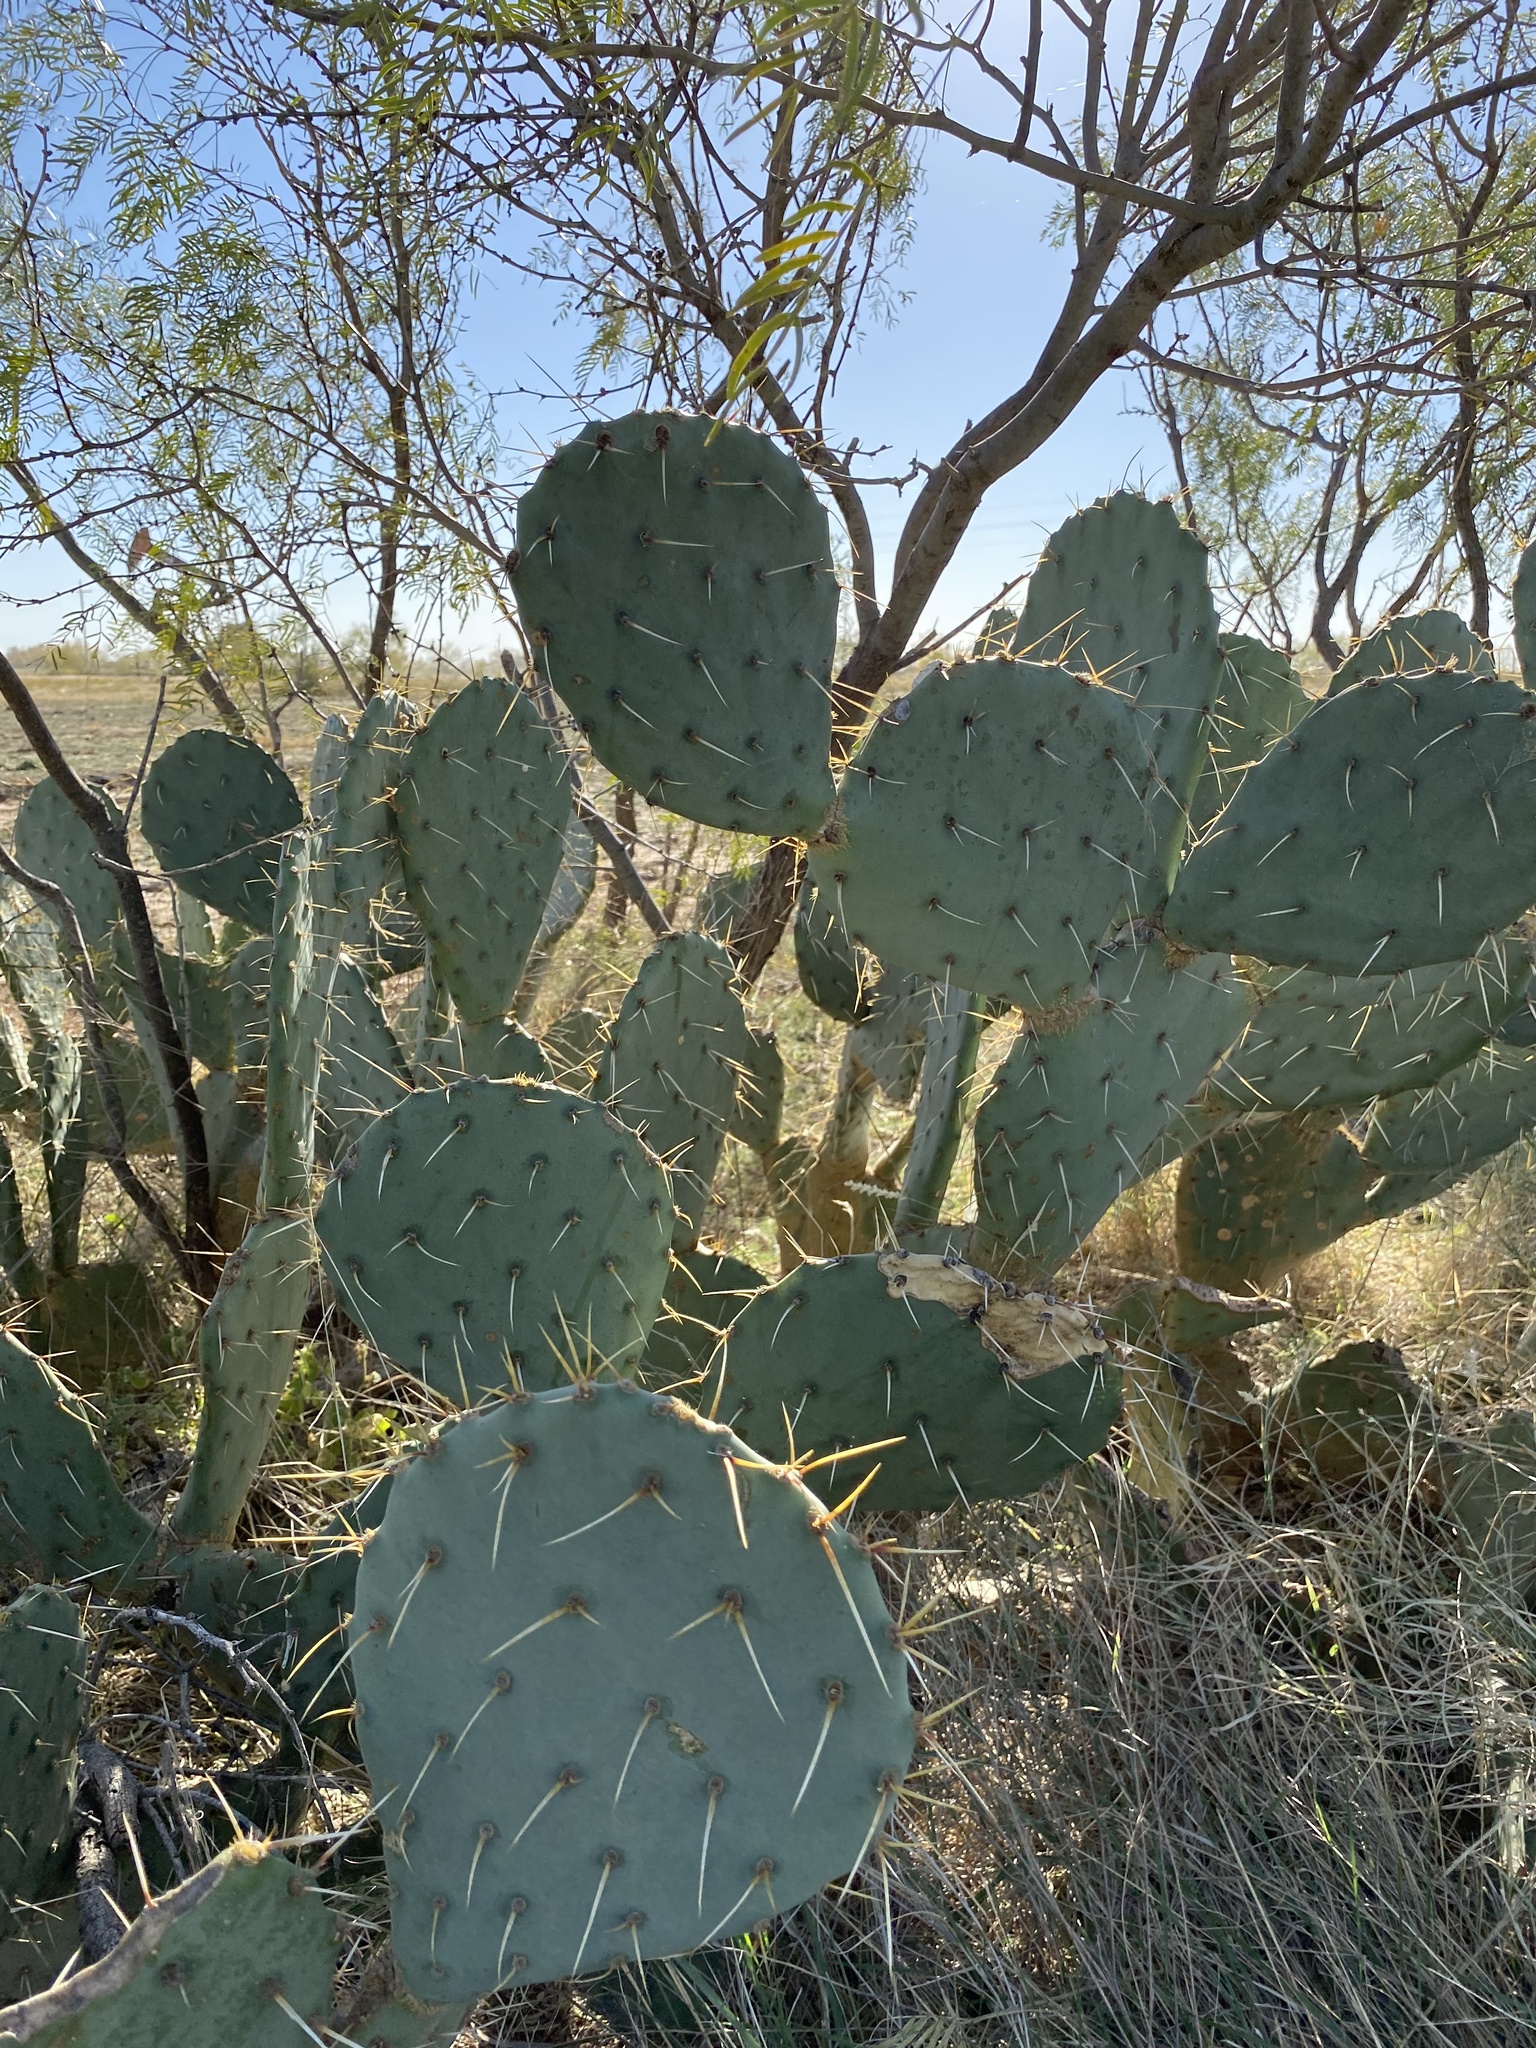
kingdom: Plantae
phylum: Tracheophyta
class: Magnoliopsida
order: Caryophyllales
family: Cactaceae
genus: Opuntia
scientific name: Opuntia engelmannii
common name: Cactus-apple
